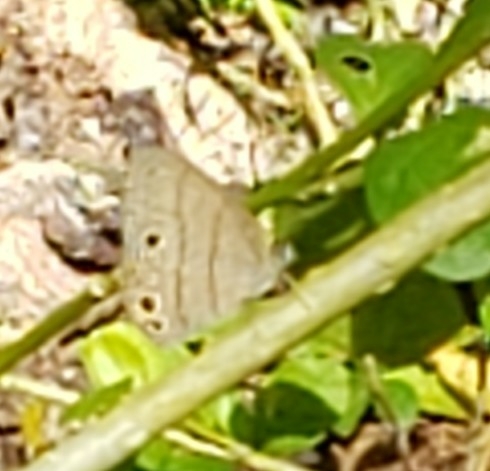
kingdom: Animalia
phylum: Arthropoda
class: Insecta
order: Lepidoptera
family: Nymphalidae
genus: Hermeuptychia
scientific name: Hermeuptychia intricata
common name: Intricate satyr
